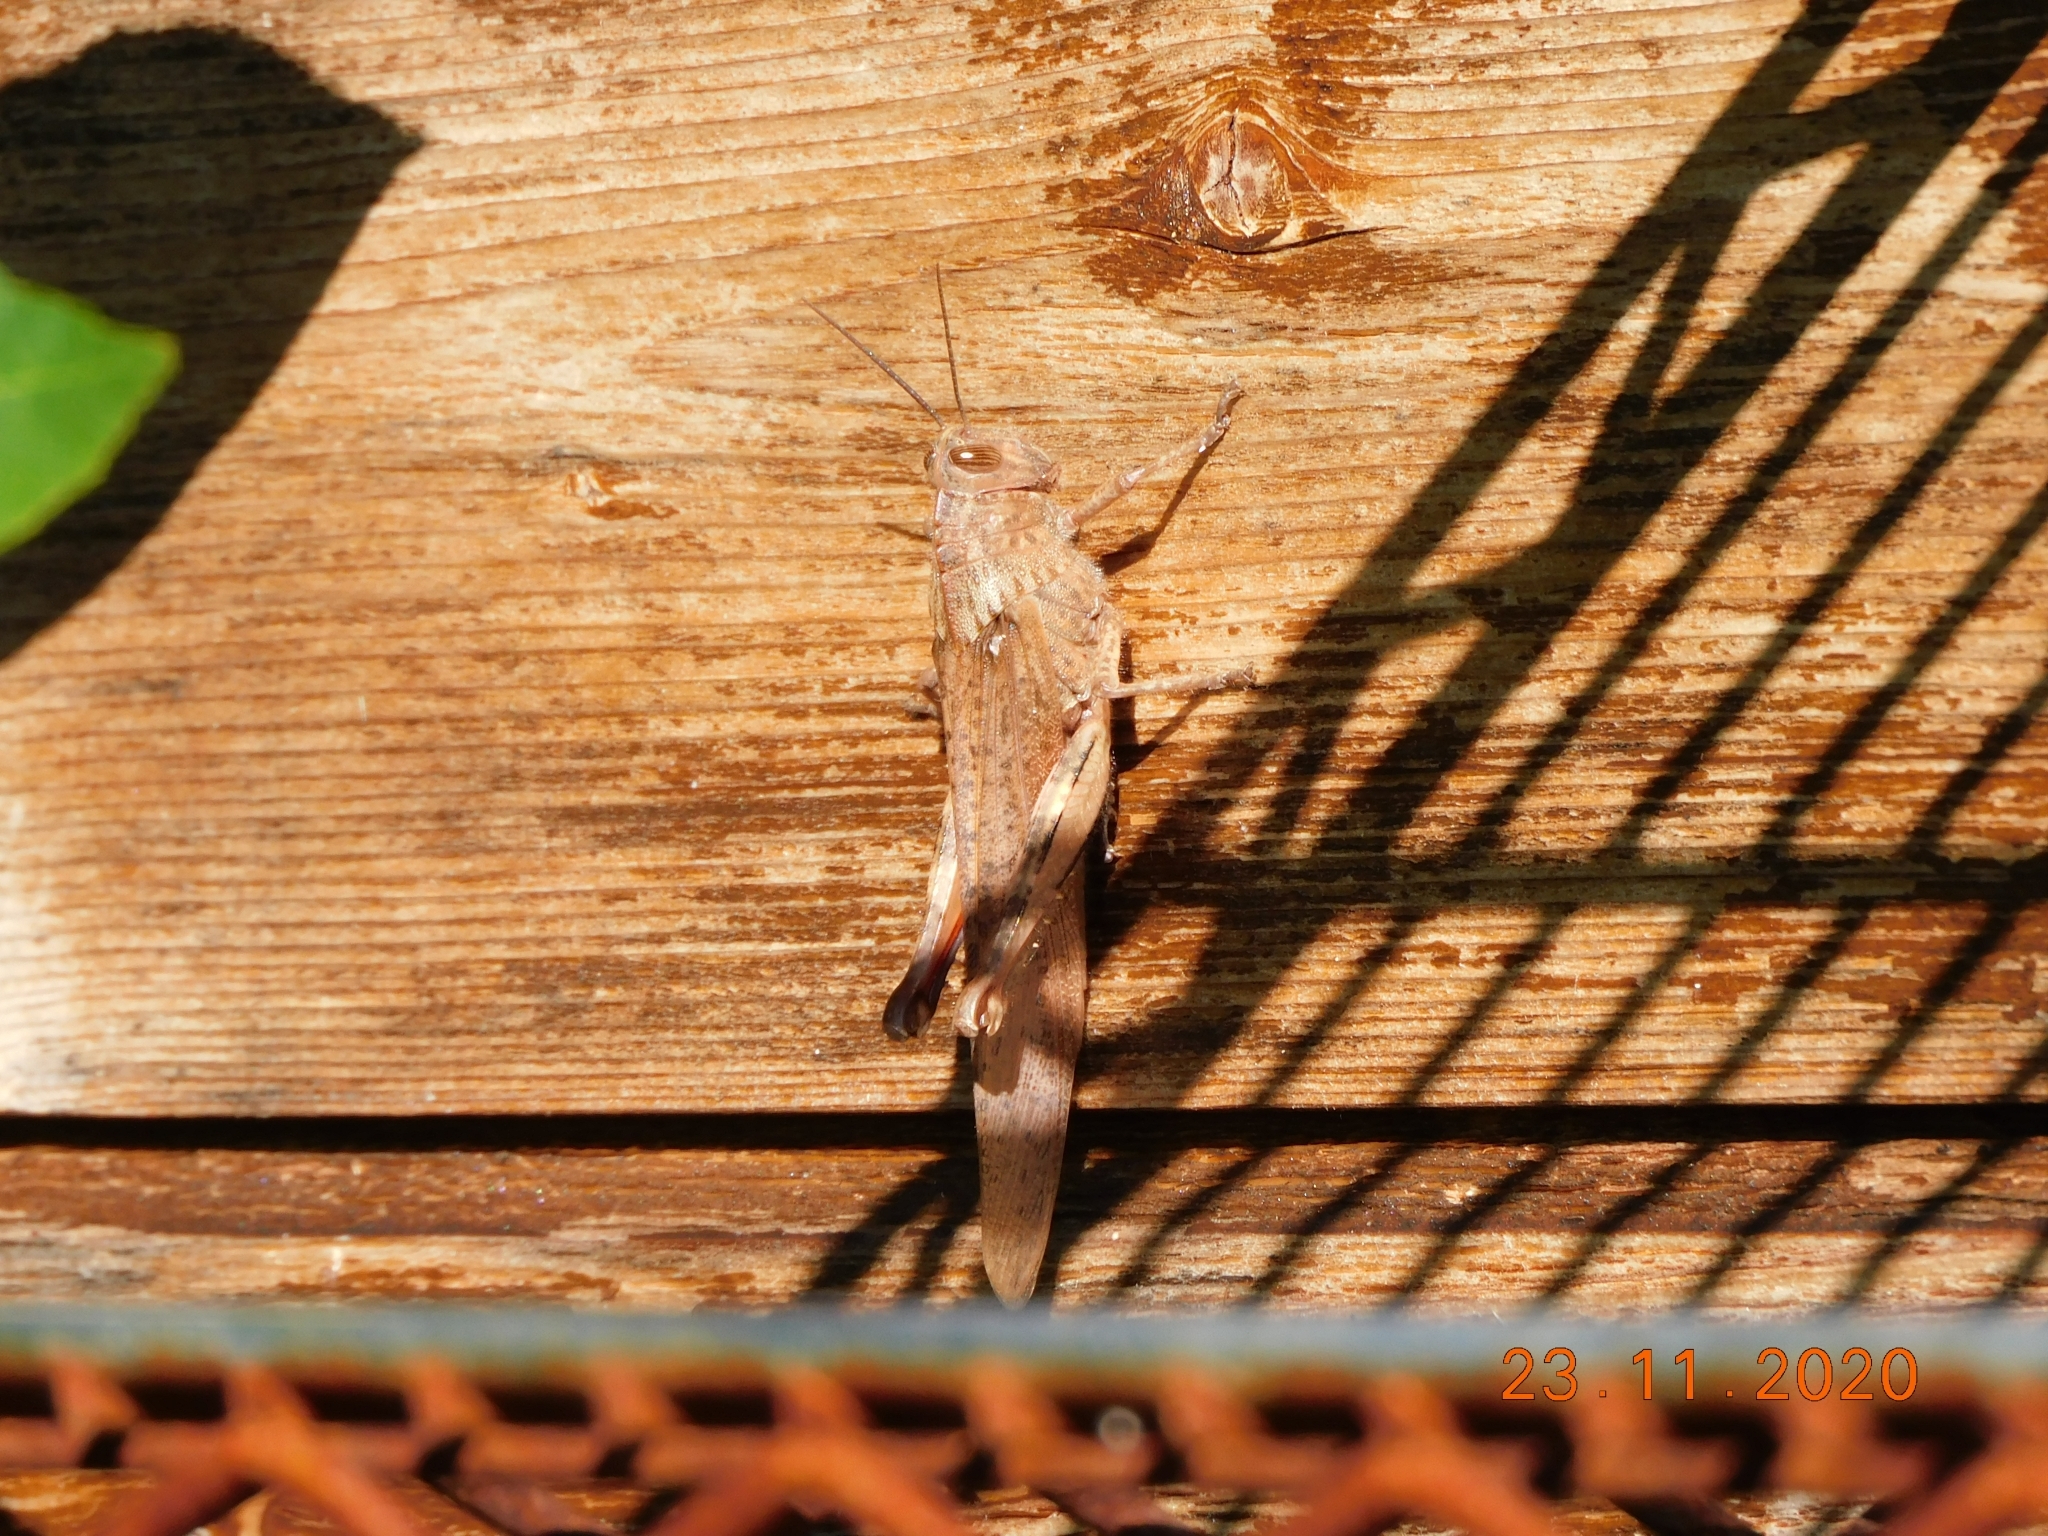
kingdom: Animalia
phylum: Arthropoda
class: Insecta
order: Orthoptera
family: Acrididae
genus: Anacridium
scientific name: Anacridium aegyptium
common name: Egyptian grasshopper
